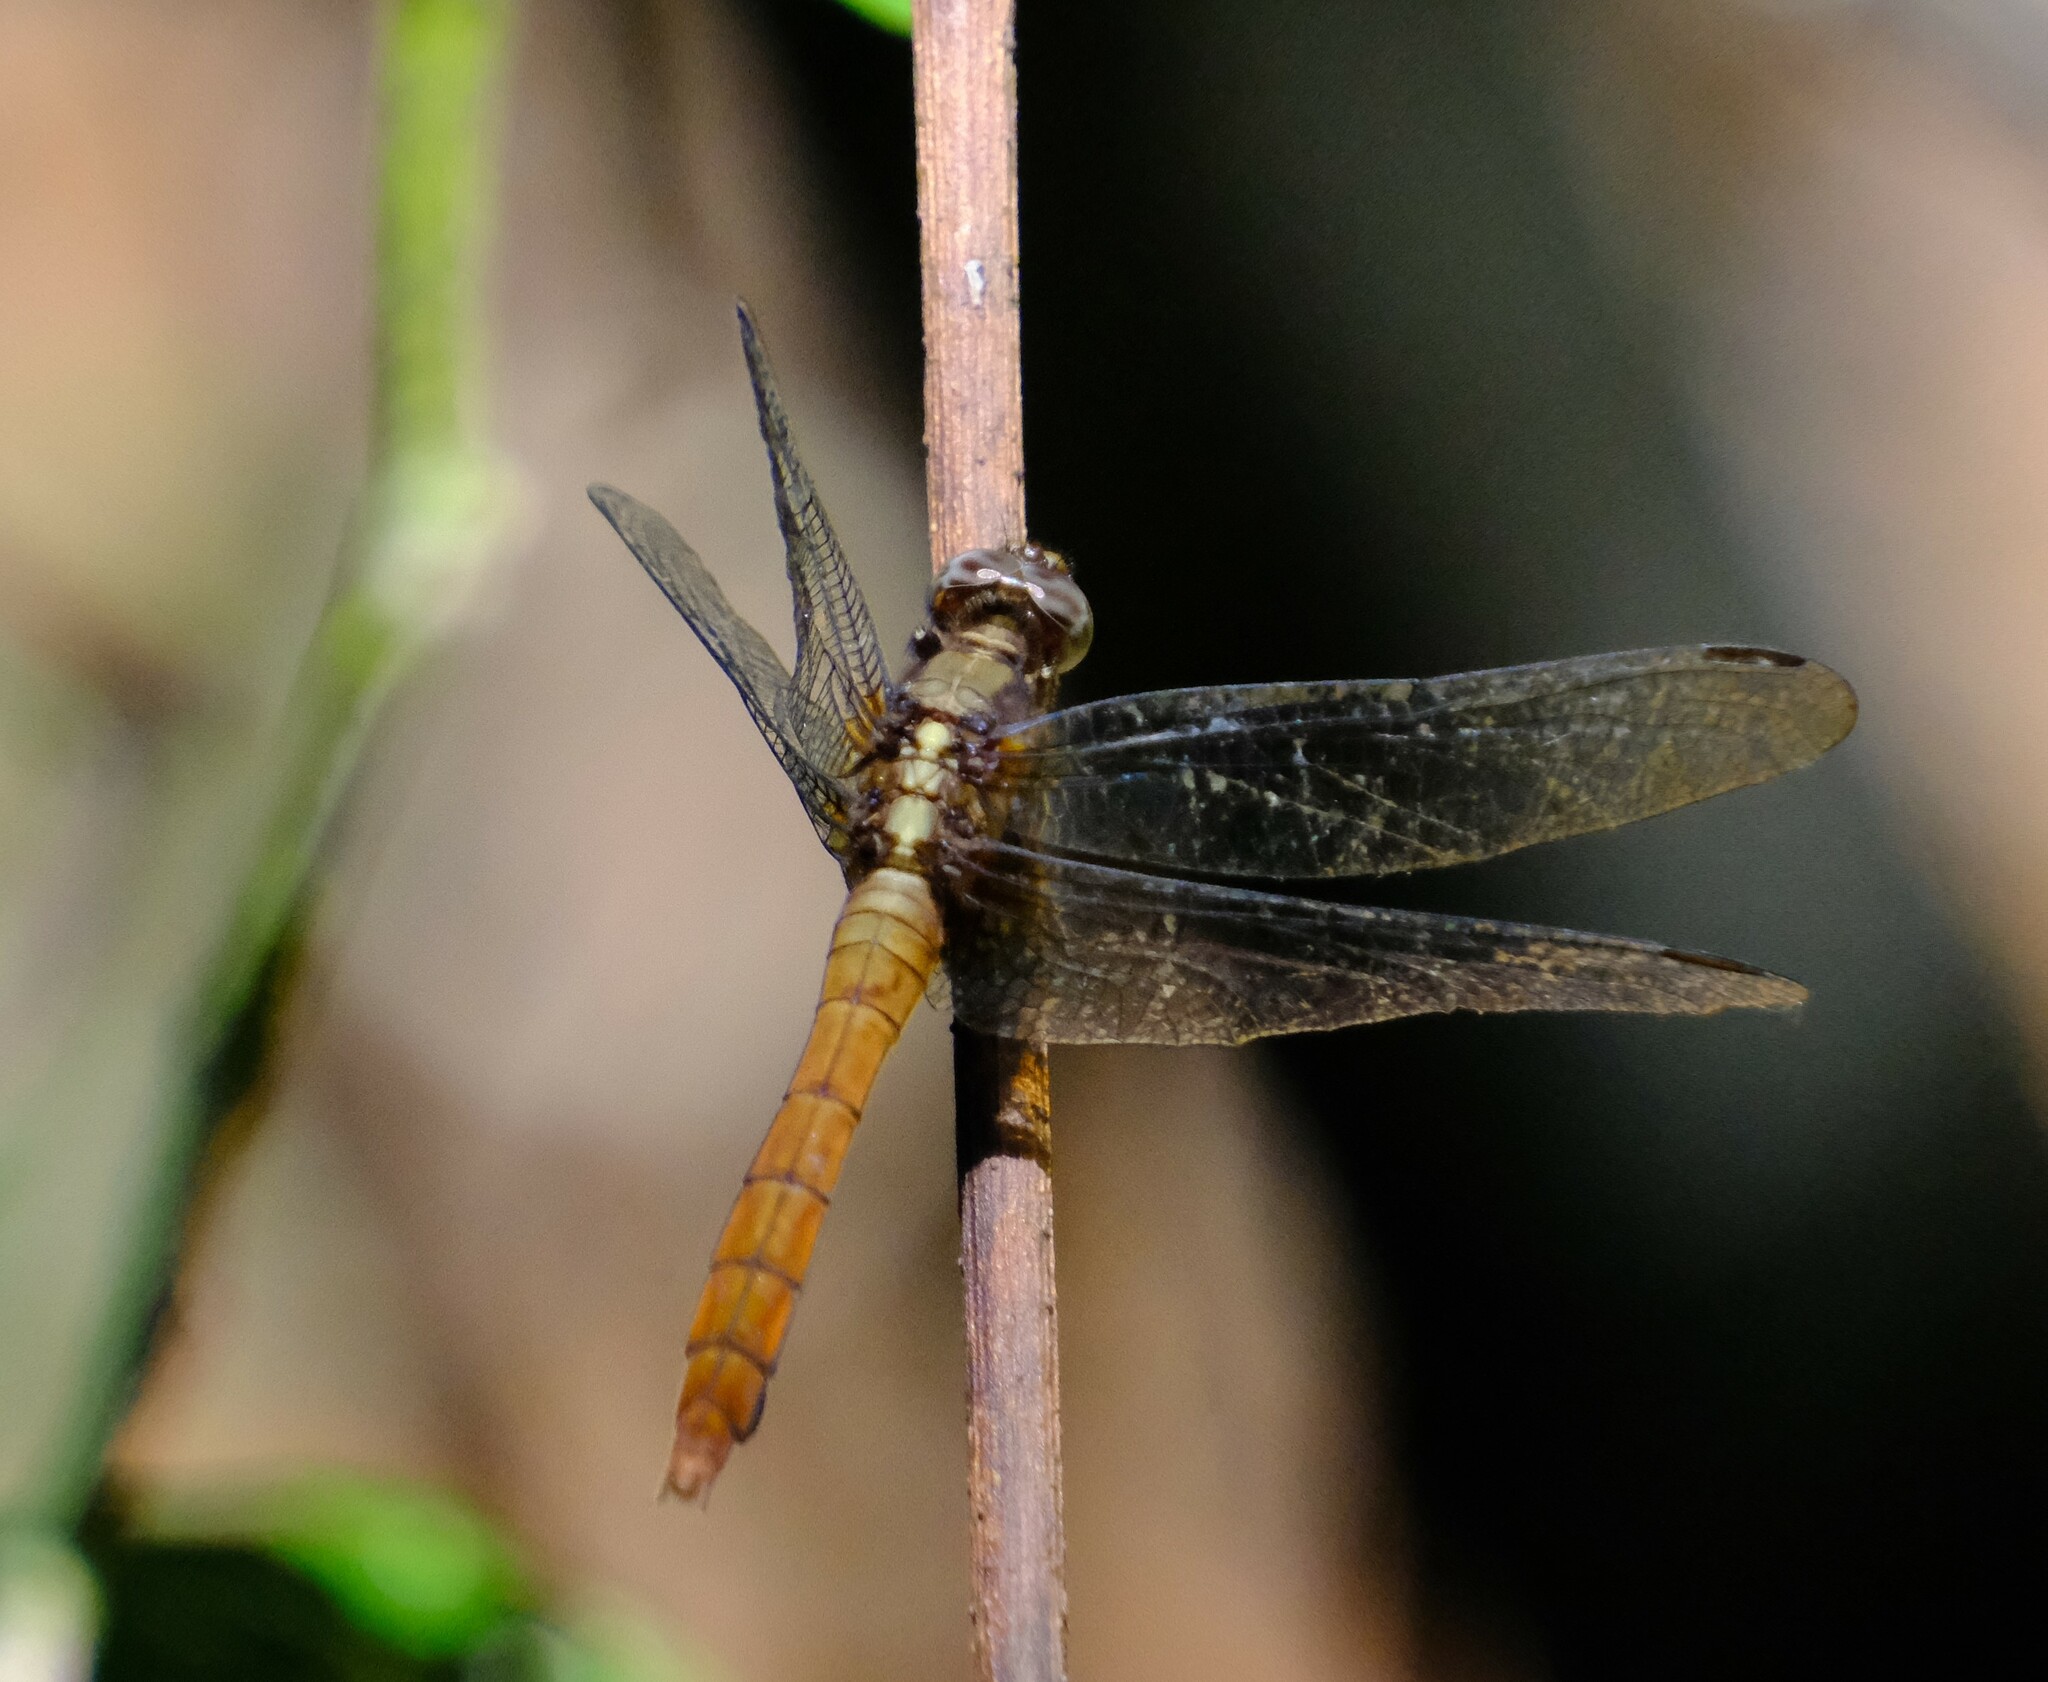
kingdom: Animalia
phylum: Arthropoda
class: Insecta
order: Odonata
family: Libellulidae
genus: Orthetrum
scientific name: Orthetrum villosovittatum
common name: Firery skimmer
